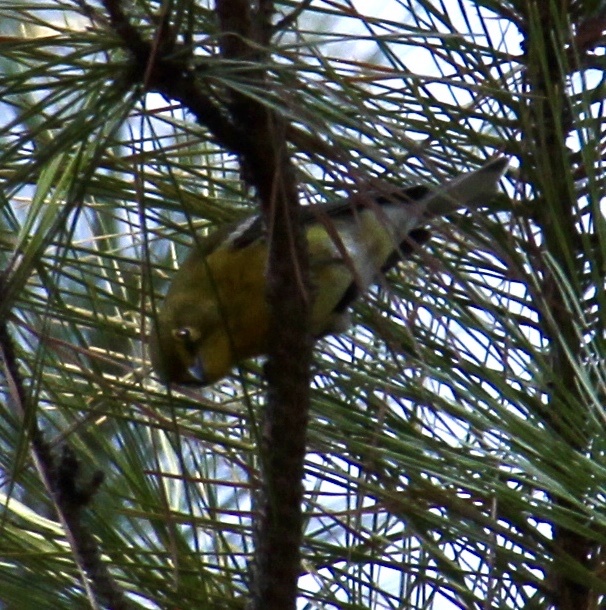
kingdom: Animalia
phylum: Chordata
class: Aves
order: Passeriformes
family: Parulidae
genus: Setophaga
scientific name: Setophaga pinus
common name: Pine warbler
